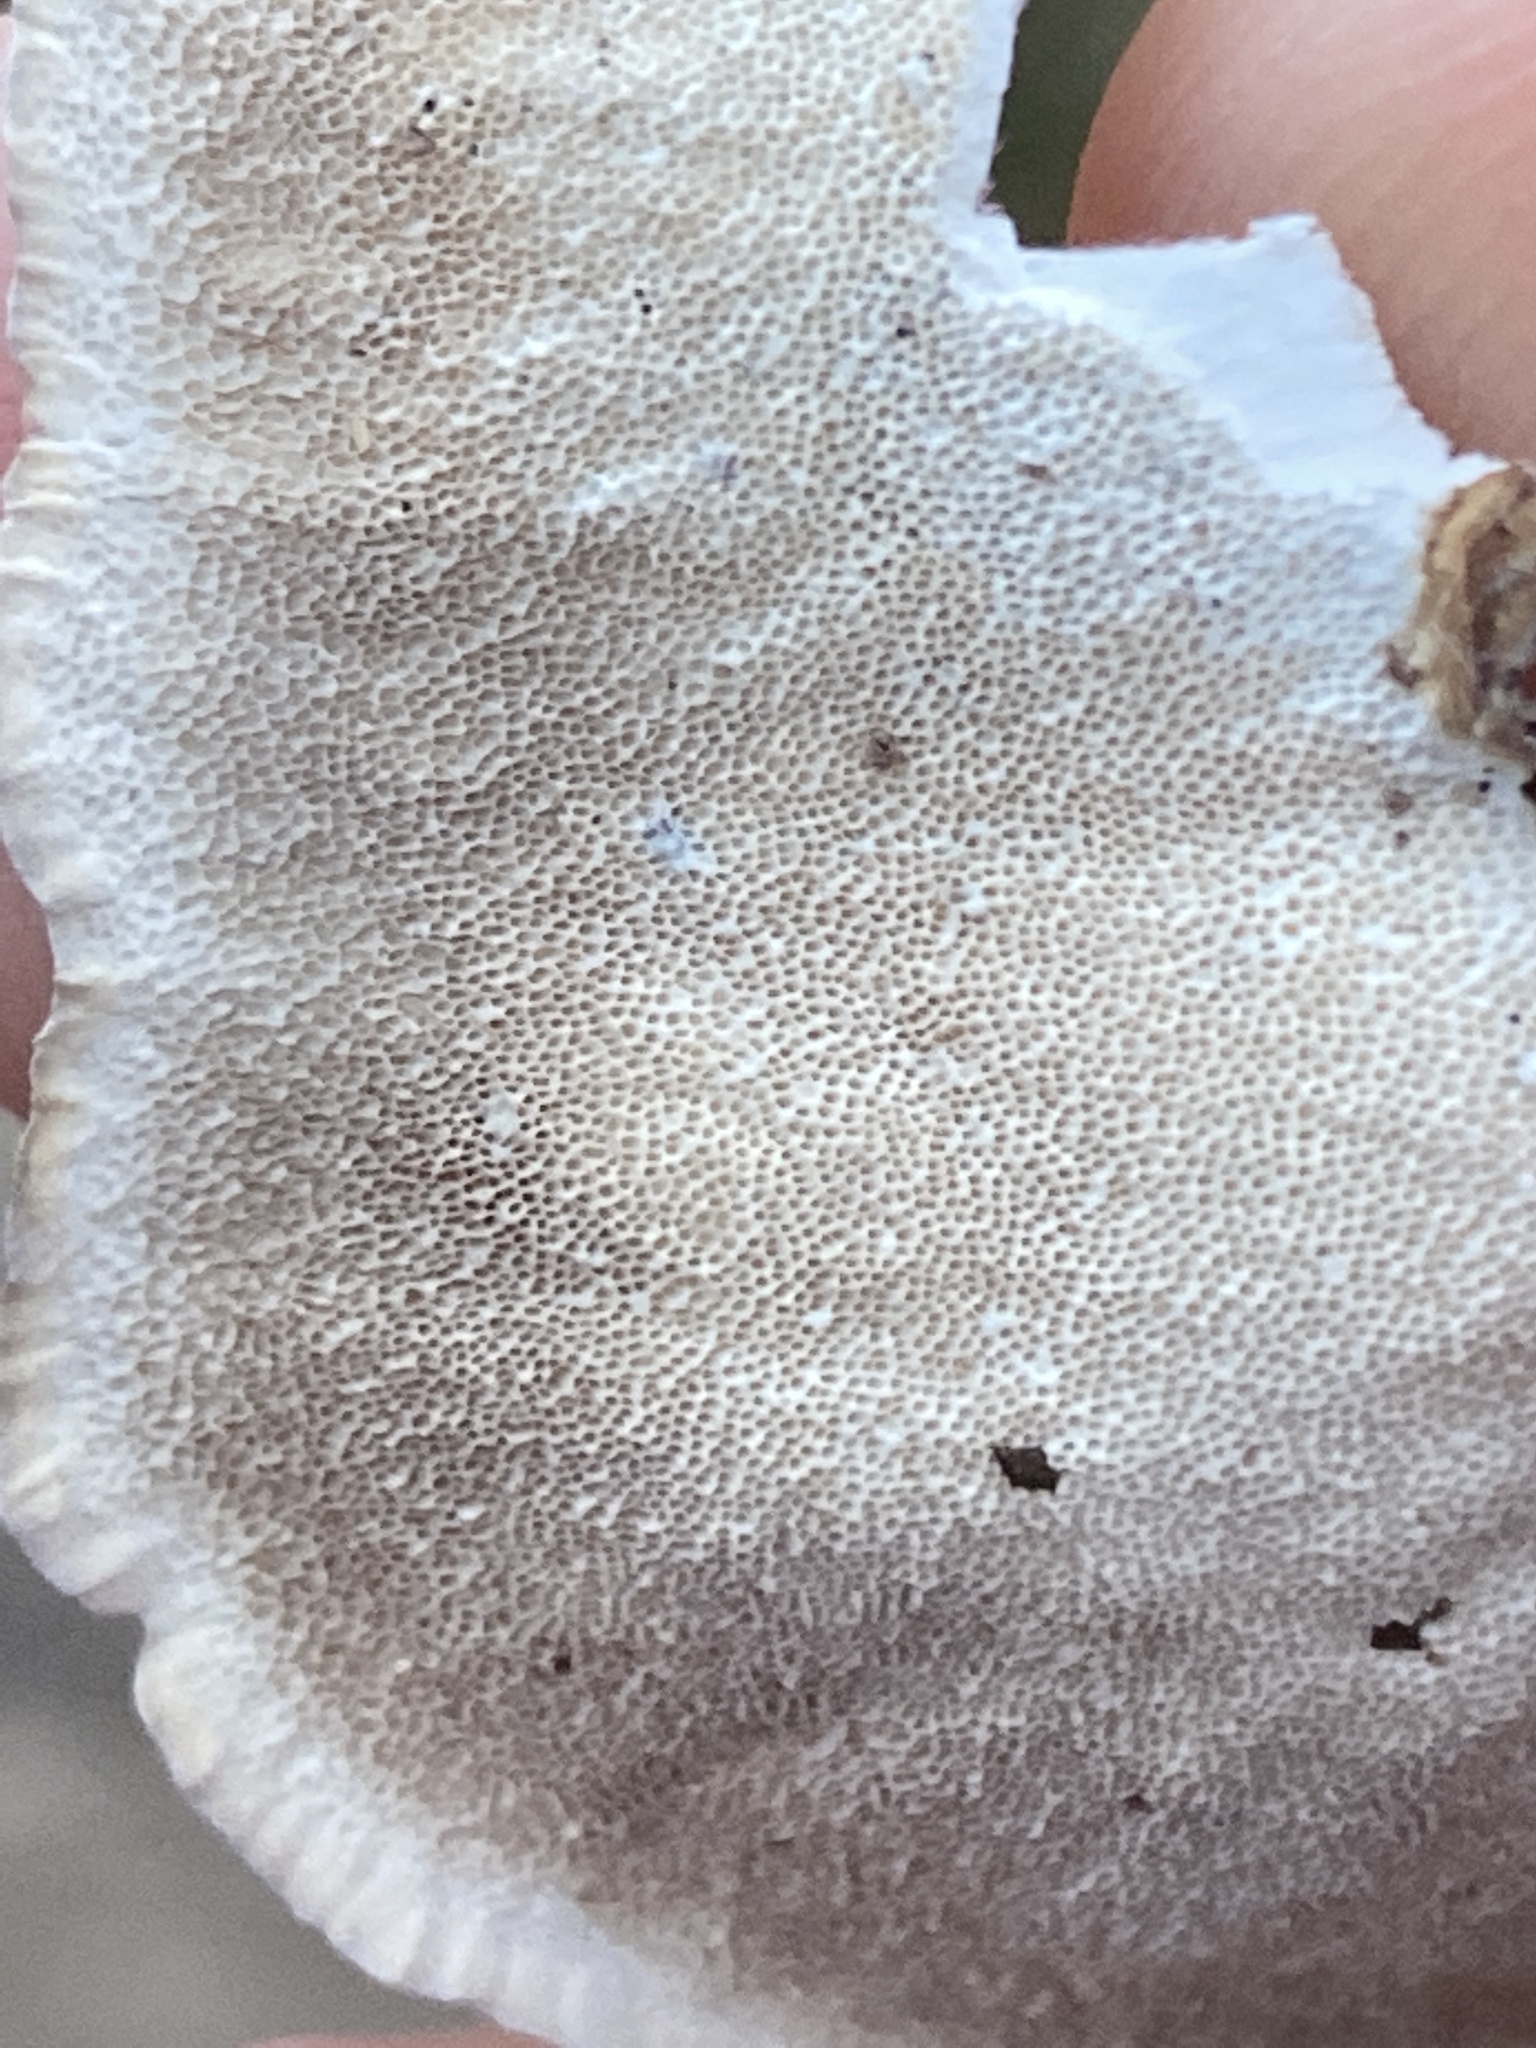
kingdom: Fungi
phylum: Basidiomycota
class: Agaricomycetes
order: Polyporales
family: Polyporaceae
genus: Trametes
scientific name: Trametes versicolor
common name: Turkeytail
